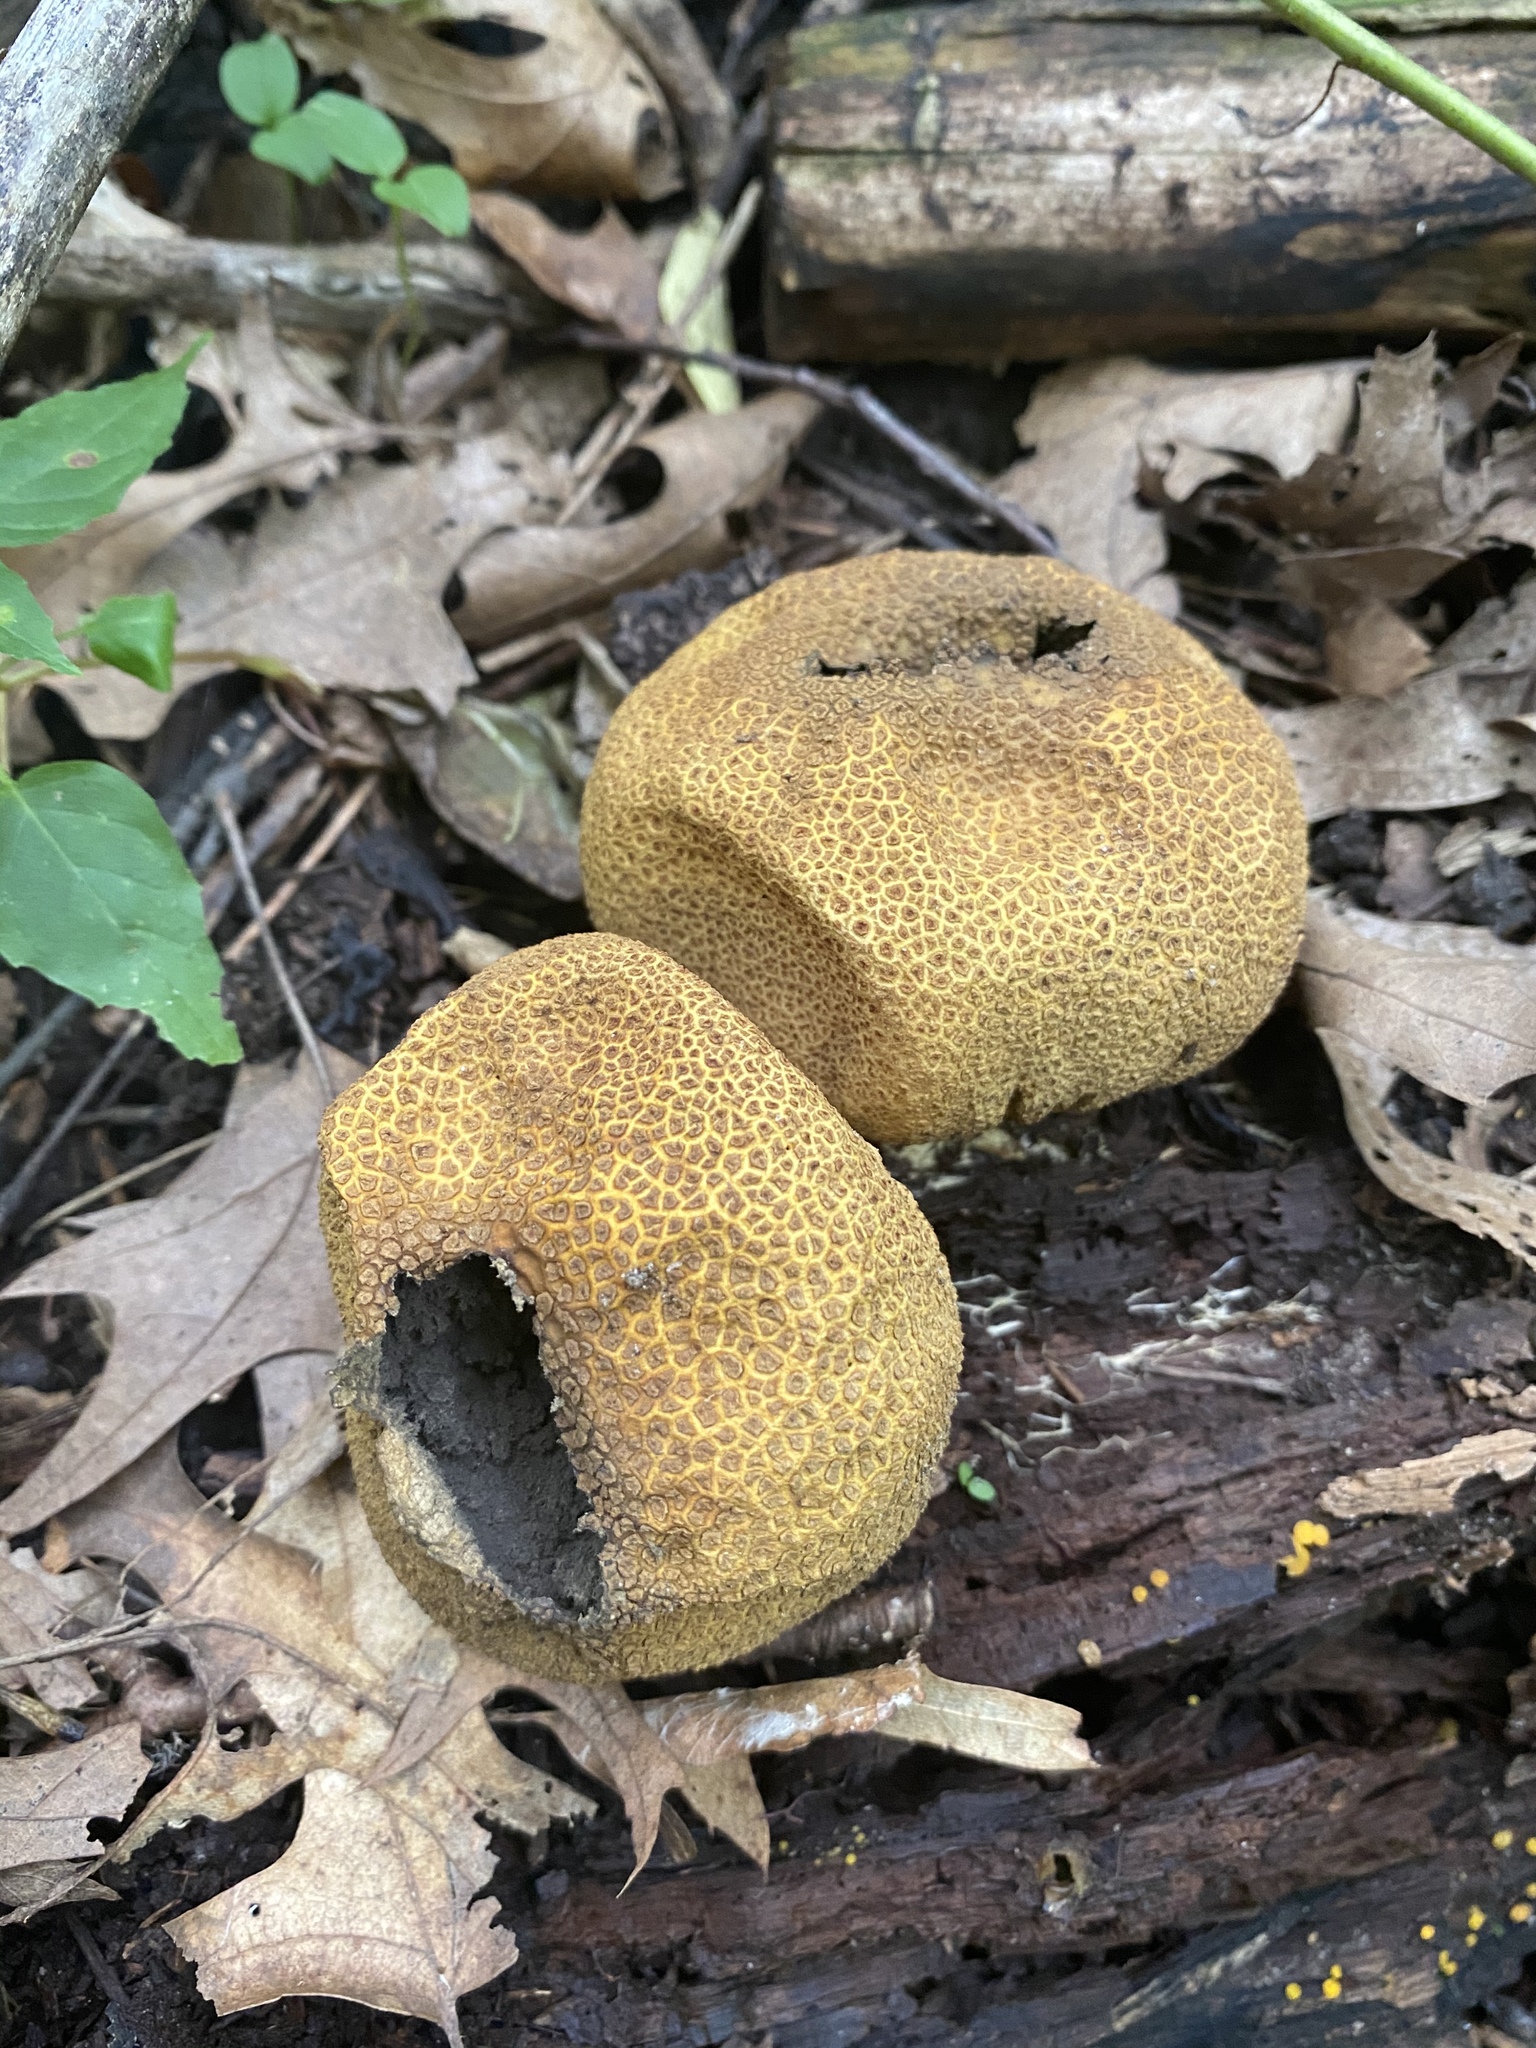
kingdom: Fungi
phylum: Basidiomycota
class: Agaricomycetes
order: Boletales
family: Sclerodermataceae
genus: Scleroderma
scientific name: Scleroderma citrinum
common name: Common earthball
